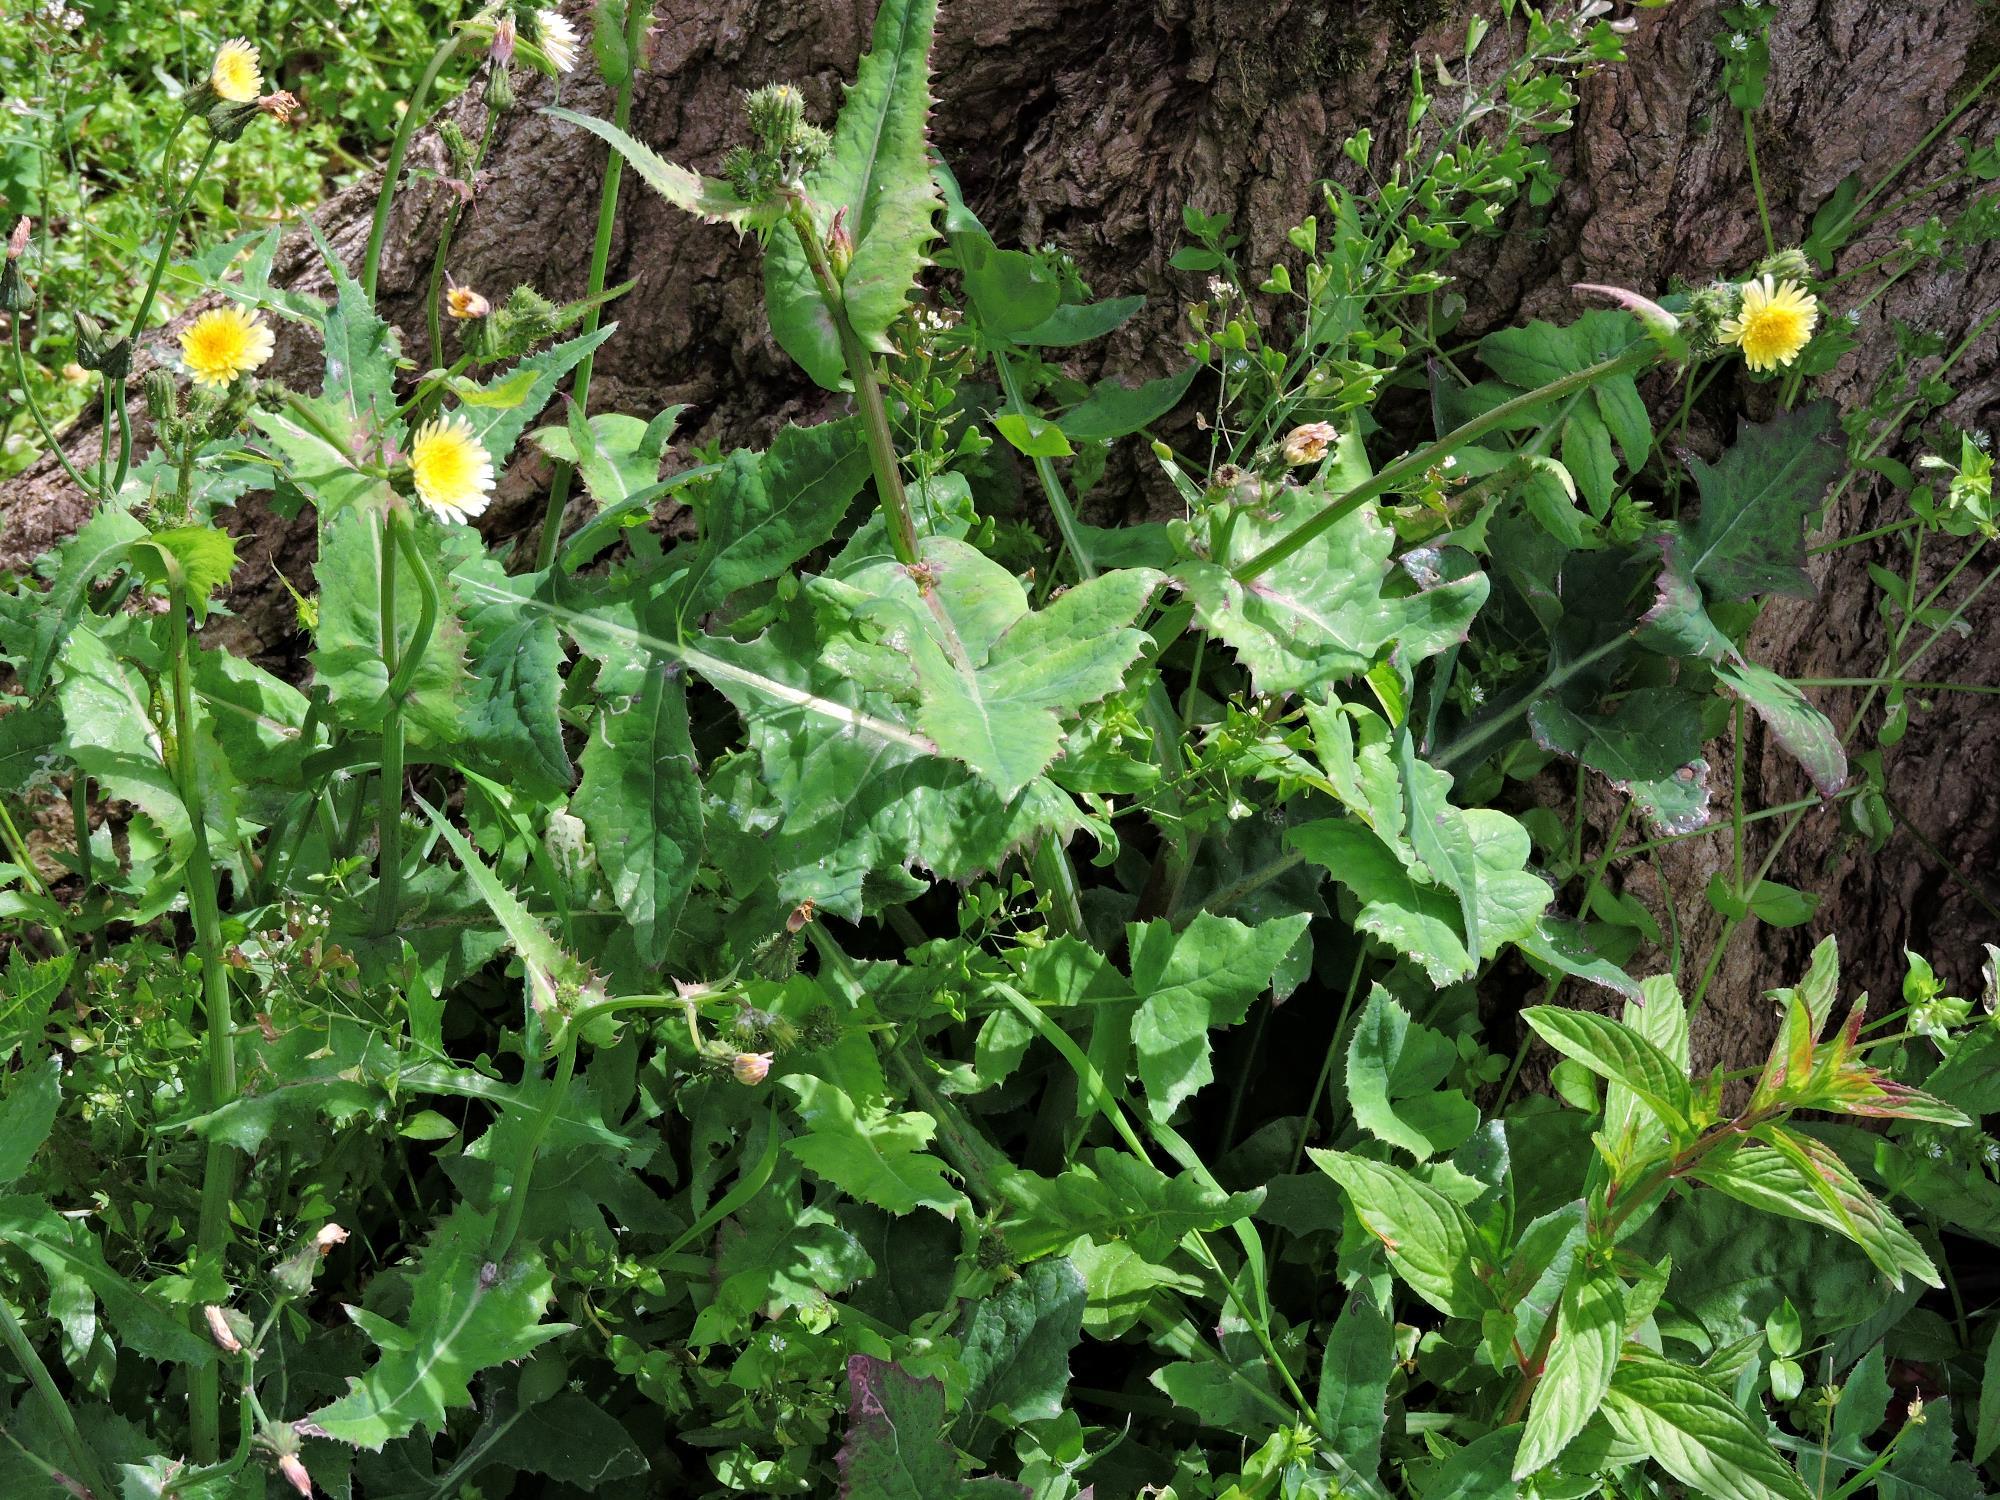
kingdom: Plantae
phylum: Tracheophyta
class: Magnoliopsida
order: Asterales
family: Asteraceae
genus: Sonchus
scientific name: Sonchus oleraceus
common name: Common sowthistle
